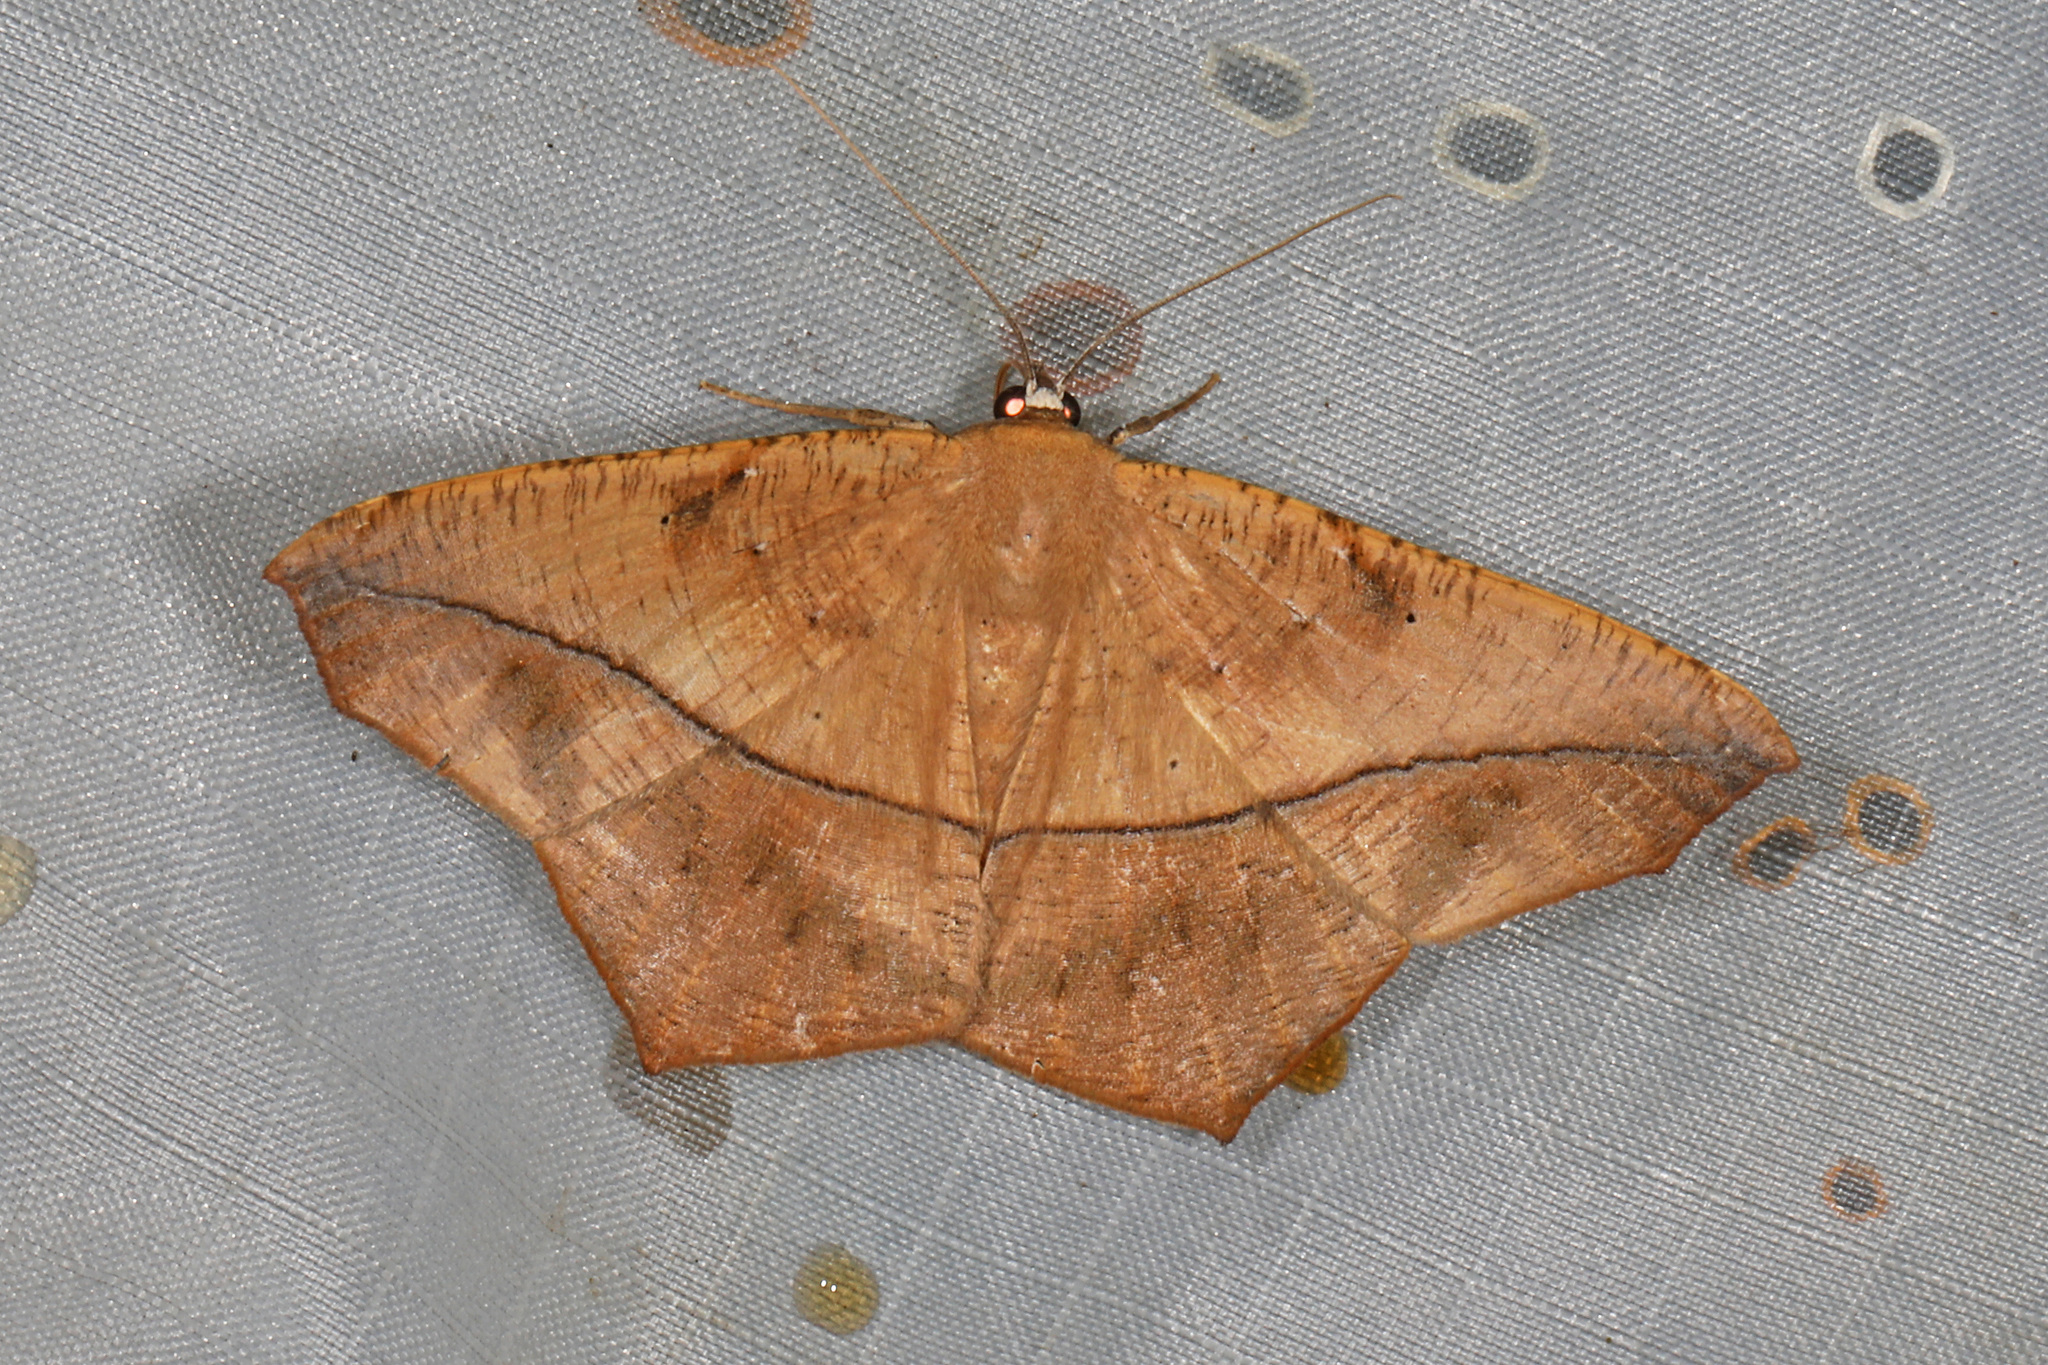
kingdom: Animalia
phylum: Arthropoda
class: Insecta
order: Lepidoptera
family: Geometridae
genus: Prochoerodes
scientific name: Prochoerodes lineola
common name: Large maple spanworm
